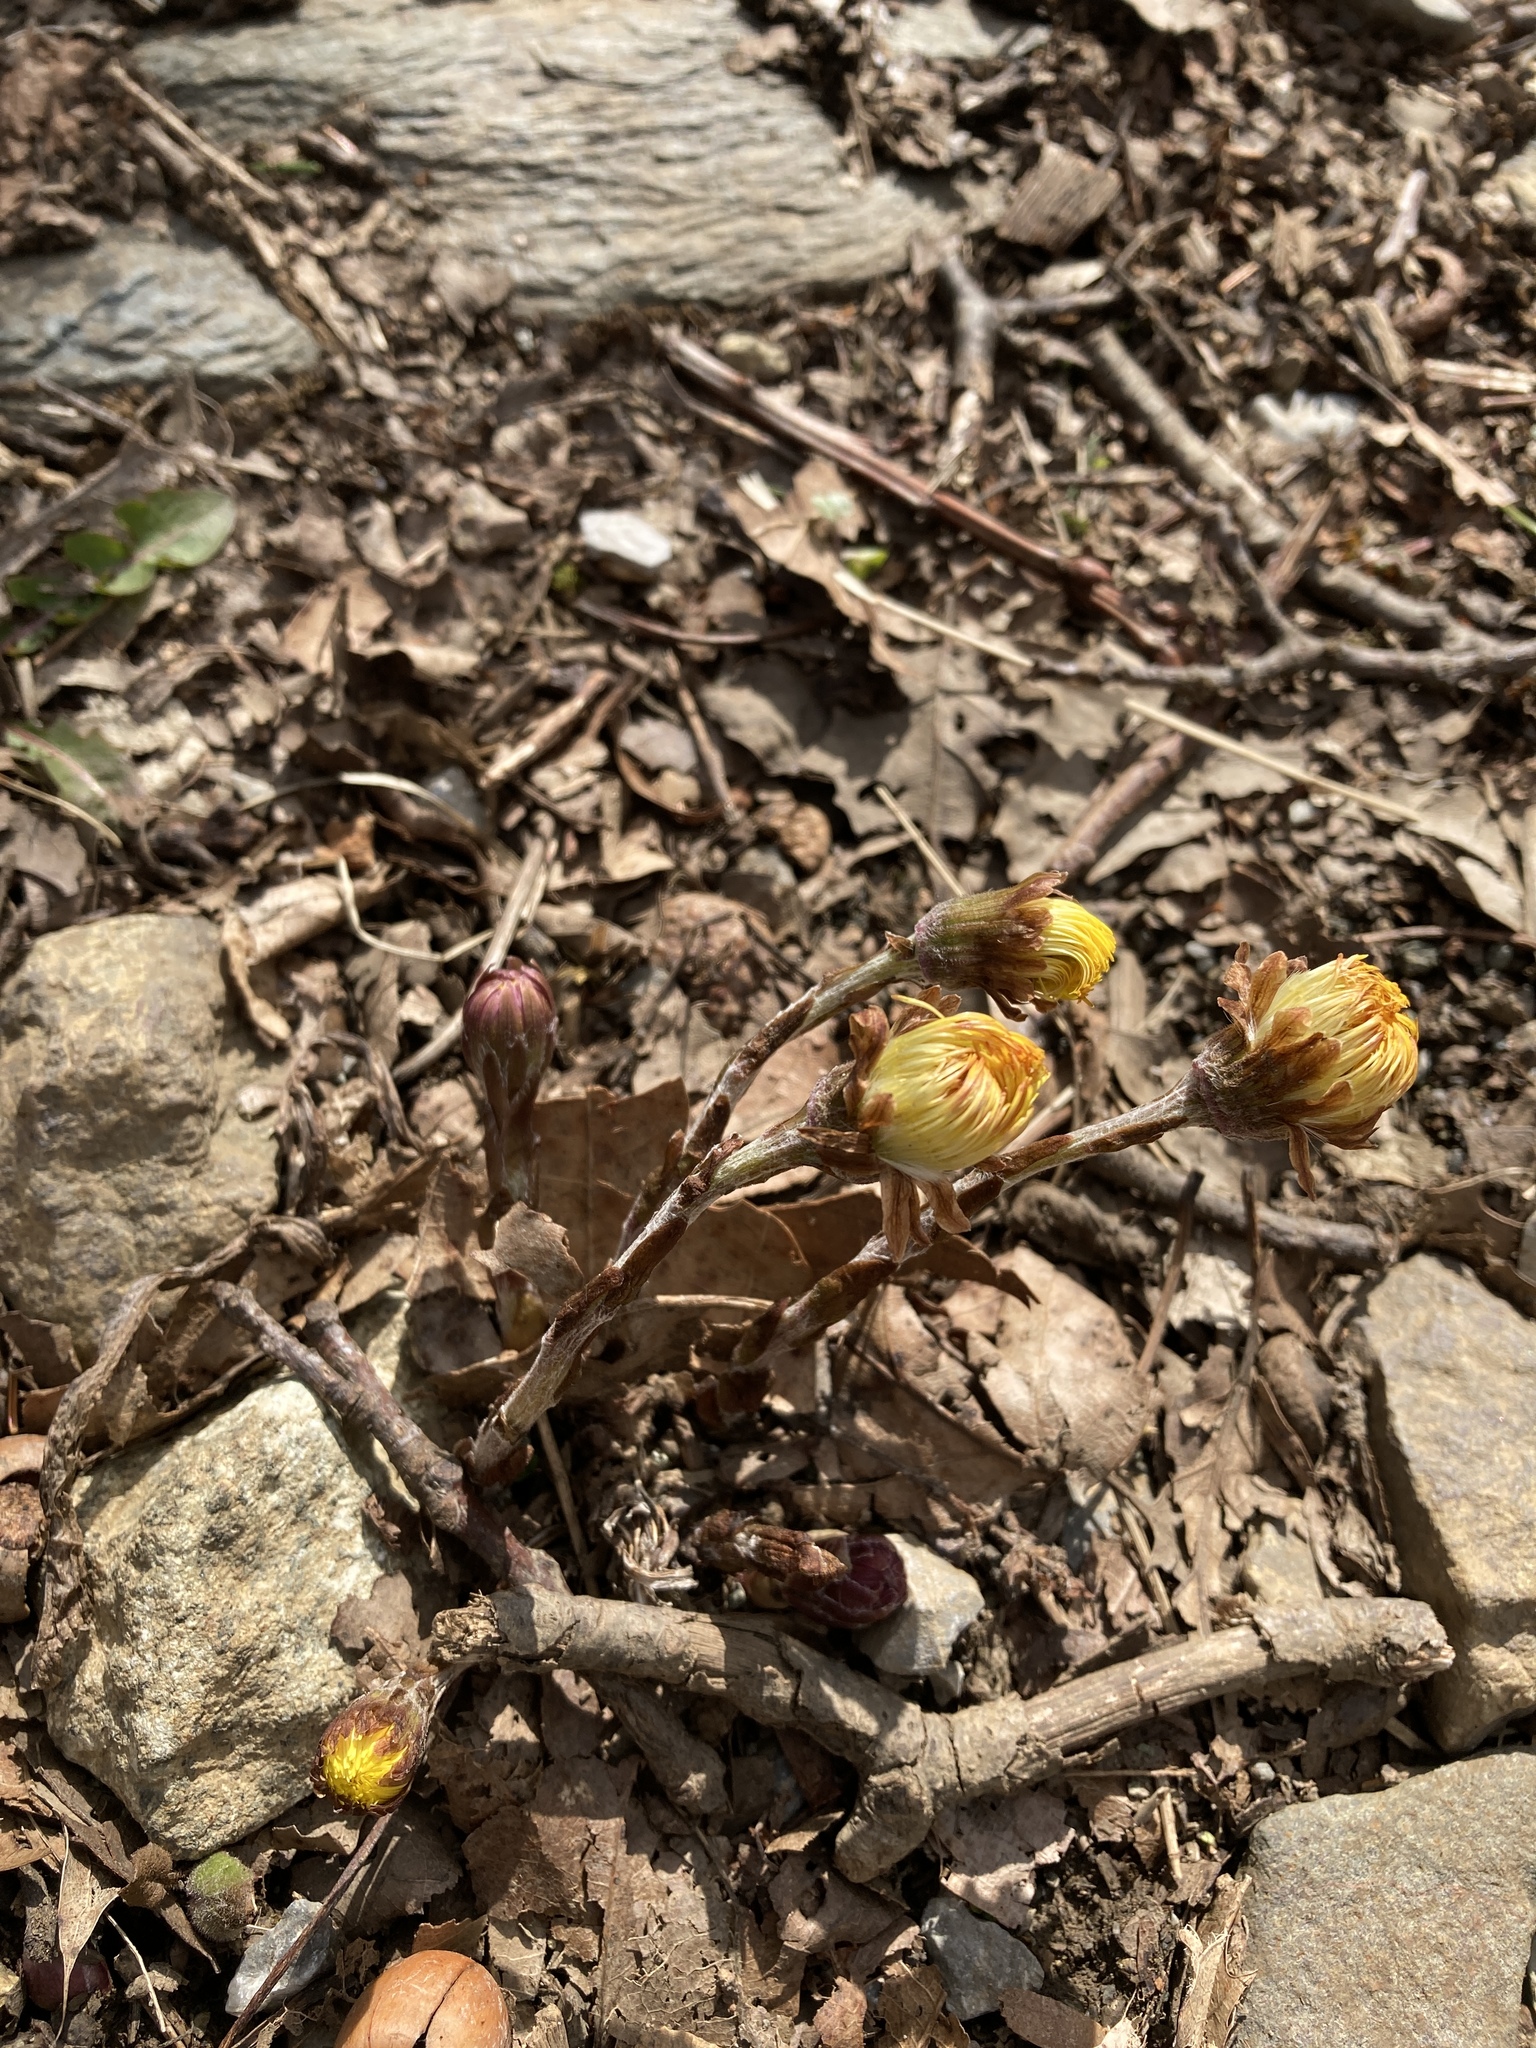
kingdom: Plantae
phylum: Tracheophyta
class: Magnoliopsida
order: Asterales
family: Asteraceae
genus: Tussilago
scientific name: Tussilago farfara
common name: Coltsfoot
